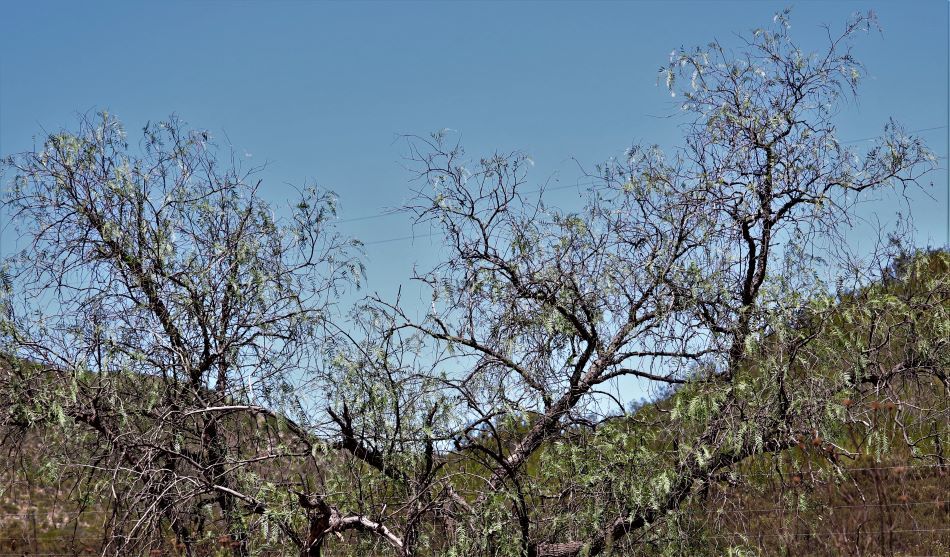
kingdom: Plantae
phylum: Tracheophyta
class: Magnoliopsida
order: Sapindales
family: Anacardiaceae
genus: Schinus
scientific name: Schinus molle
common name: Peruvian peppertree
